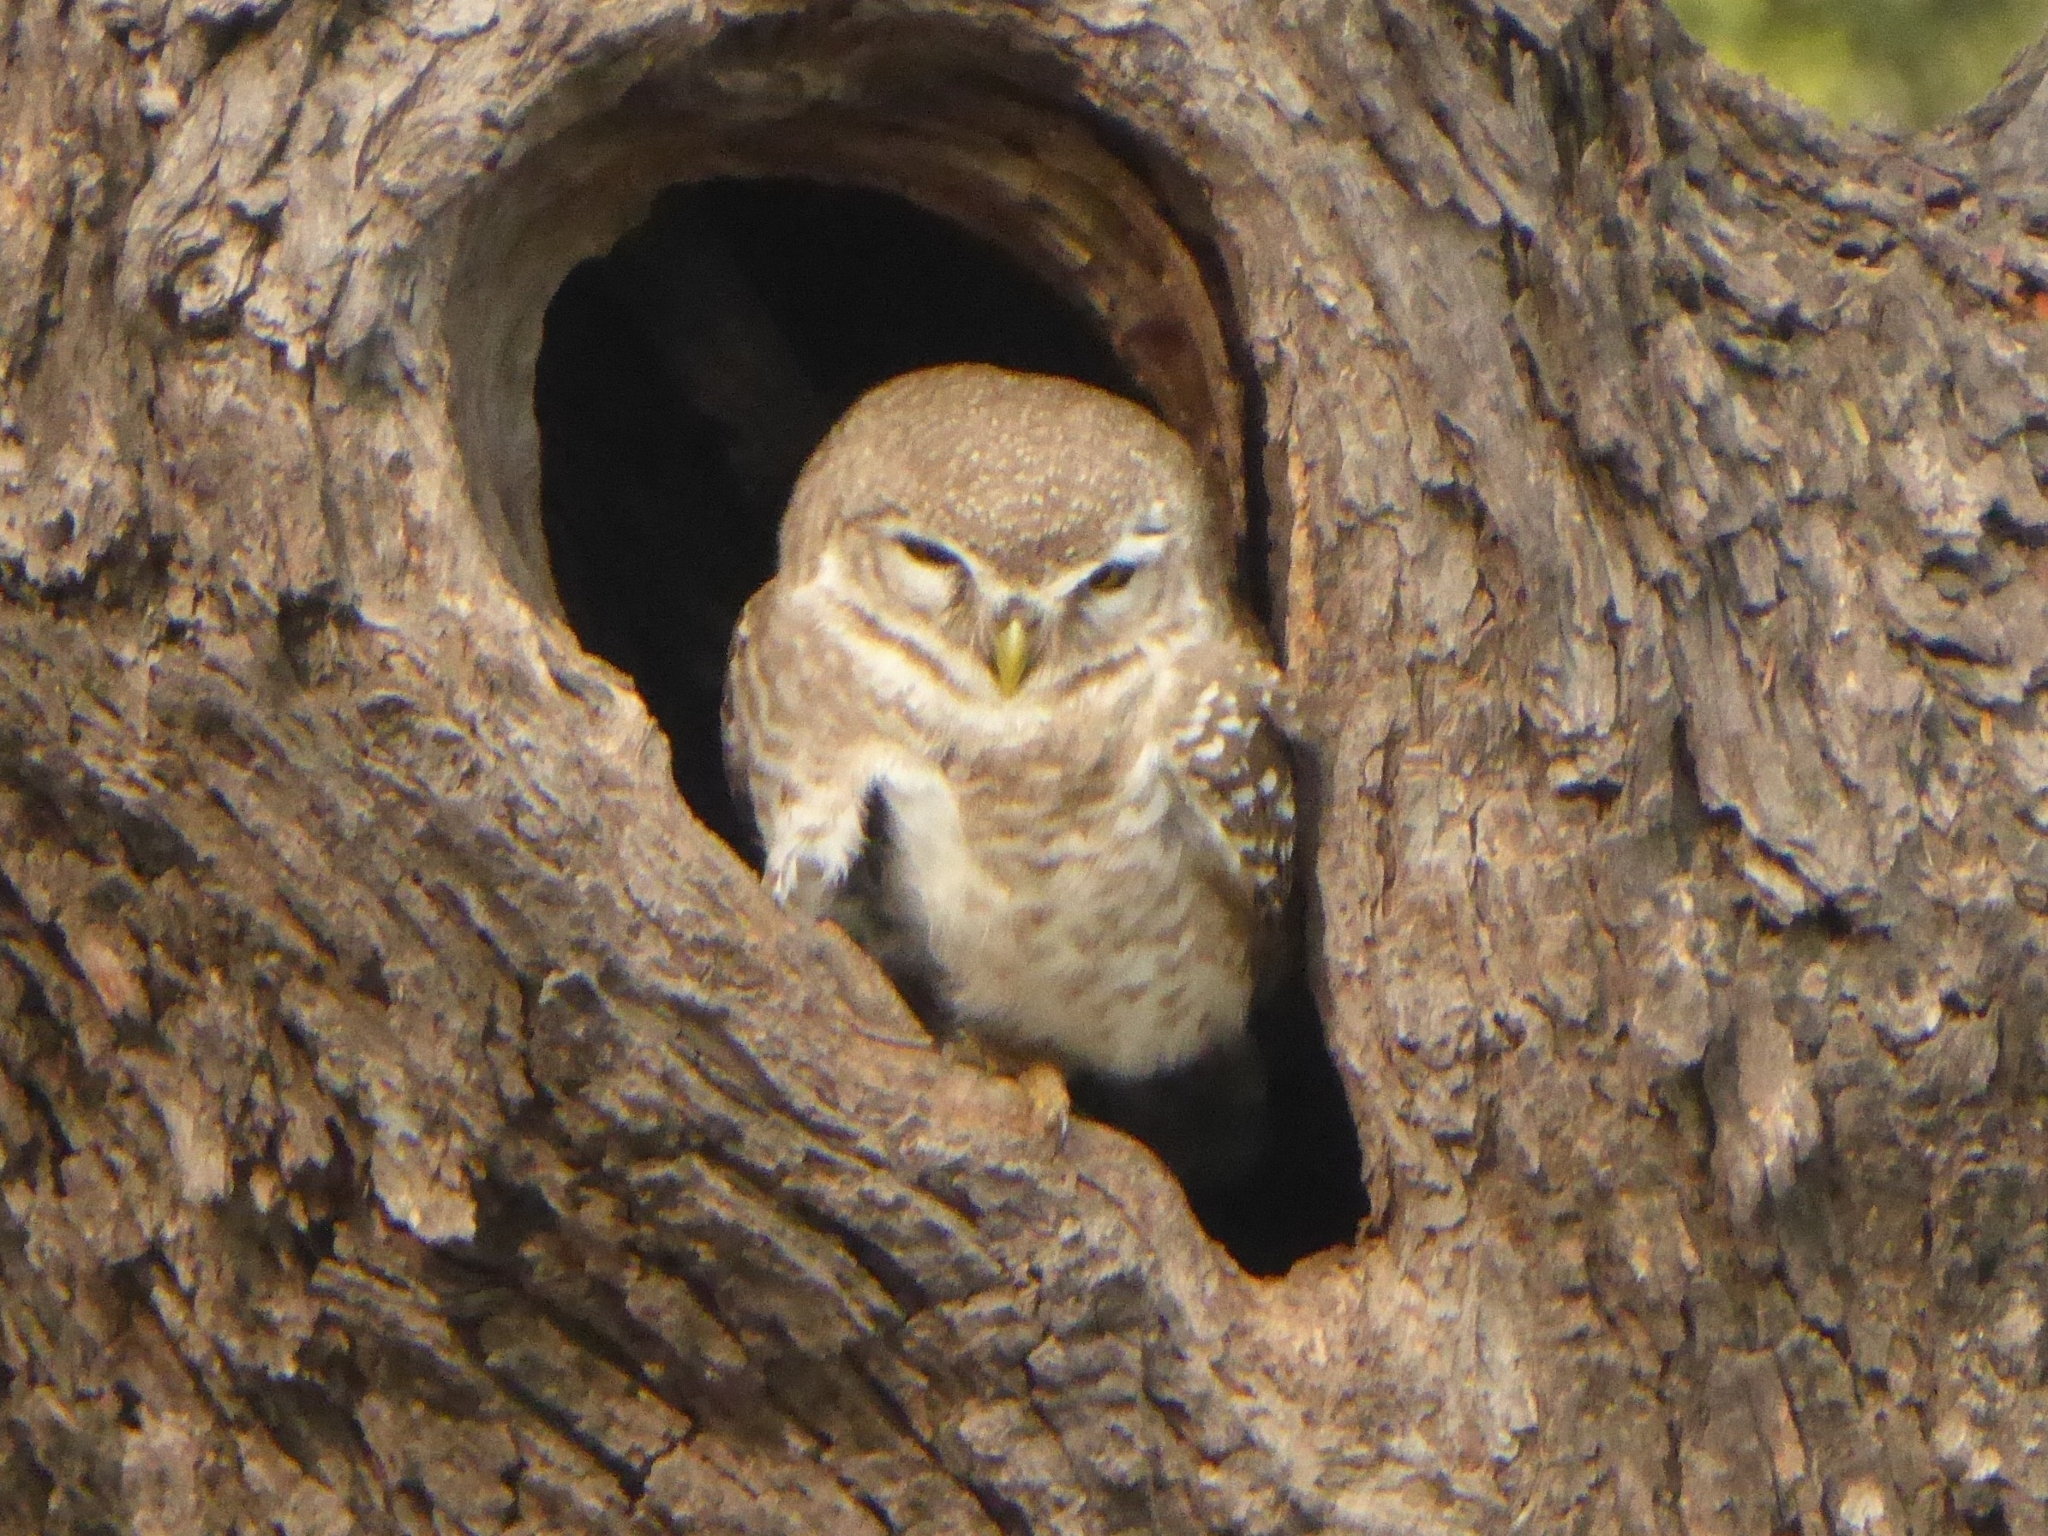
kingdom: Animalia
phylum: Chordata
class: Aves
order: Strigiformes
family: Strigidae
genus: Athene
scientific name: Athene brama
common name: Spotted owlet
